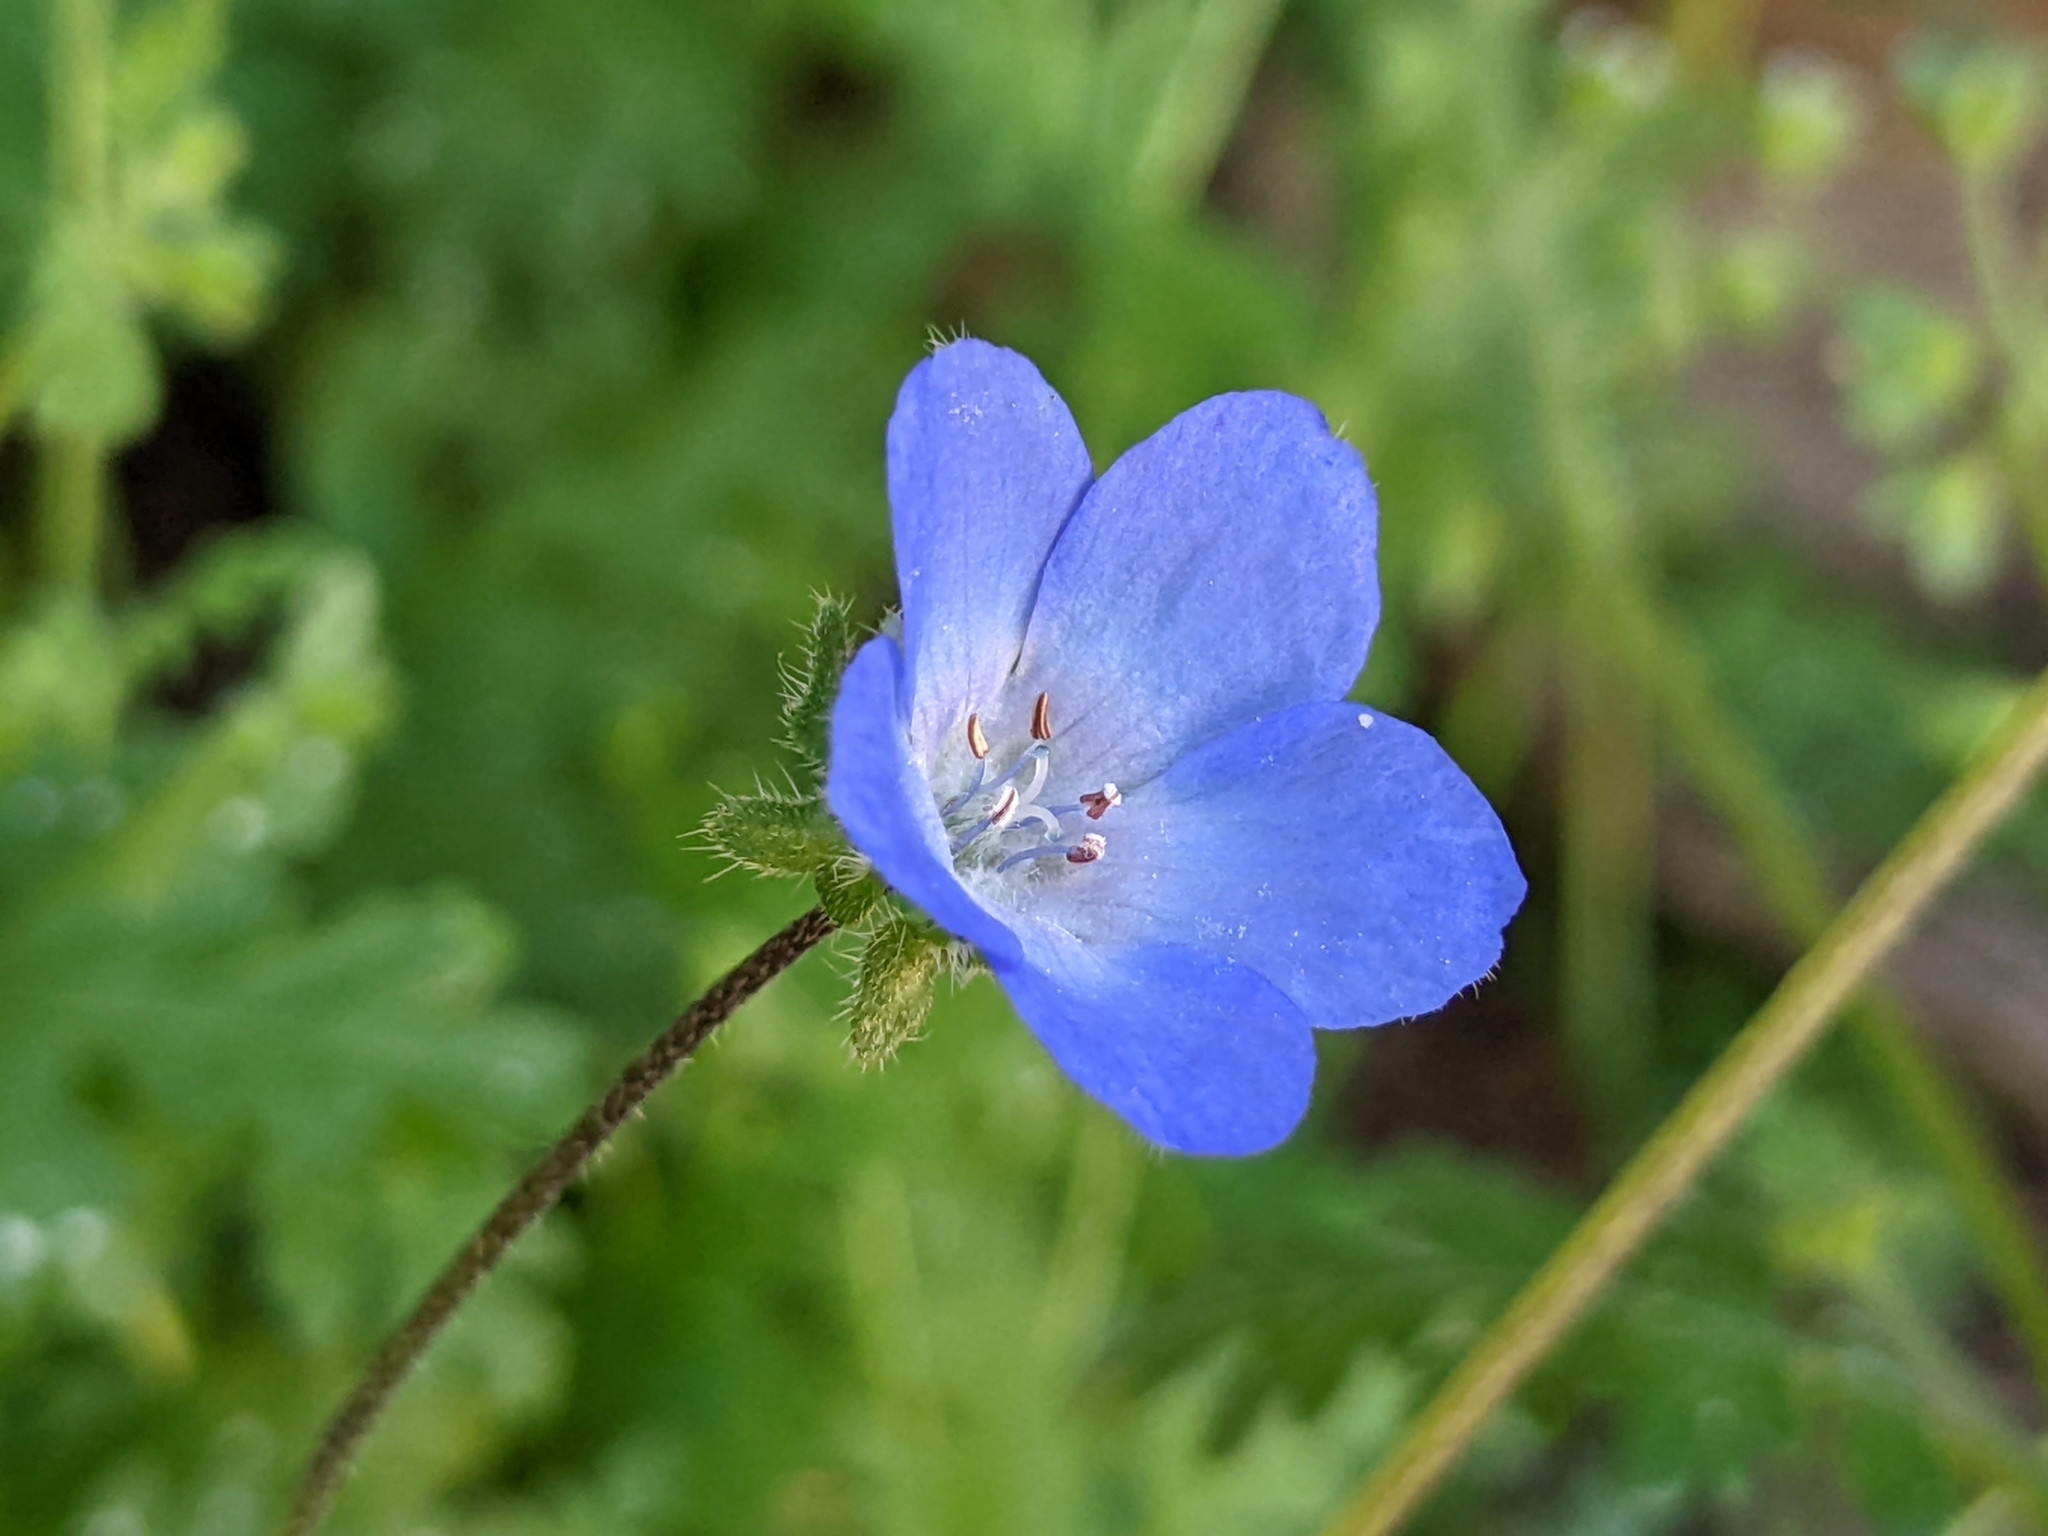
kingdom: Plantae
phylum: Tracheophyta
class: Magnoliopsida
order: Boraginales
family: Hydrophyllaceae
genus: Nemophila
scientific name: Nemophila menziesii
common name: Baby's-blue-eyes
